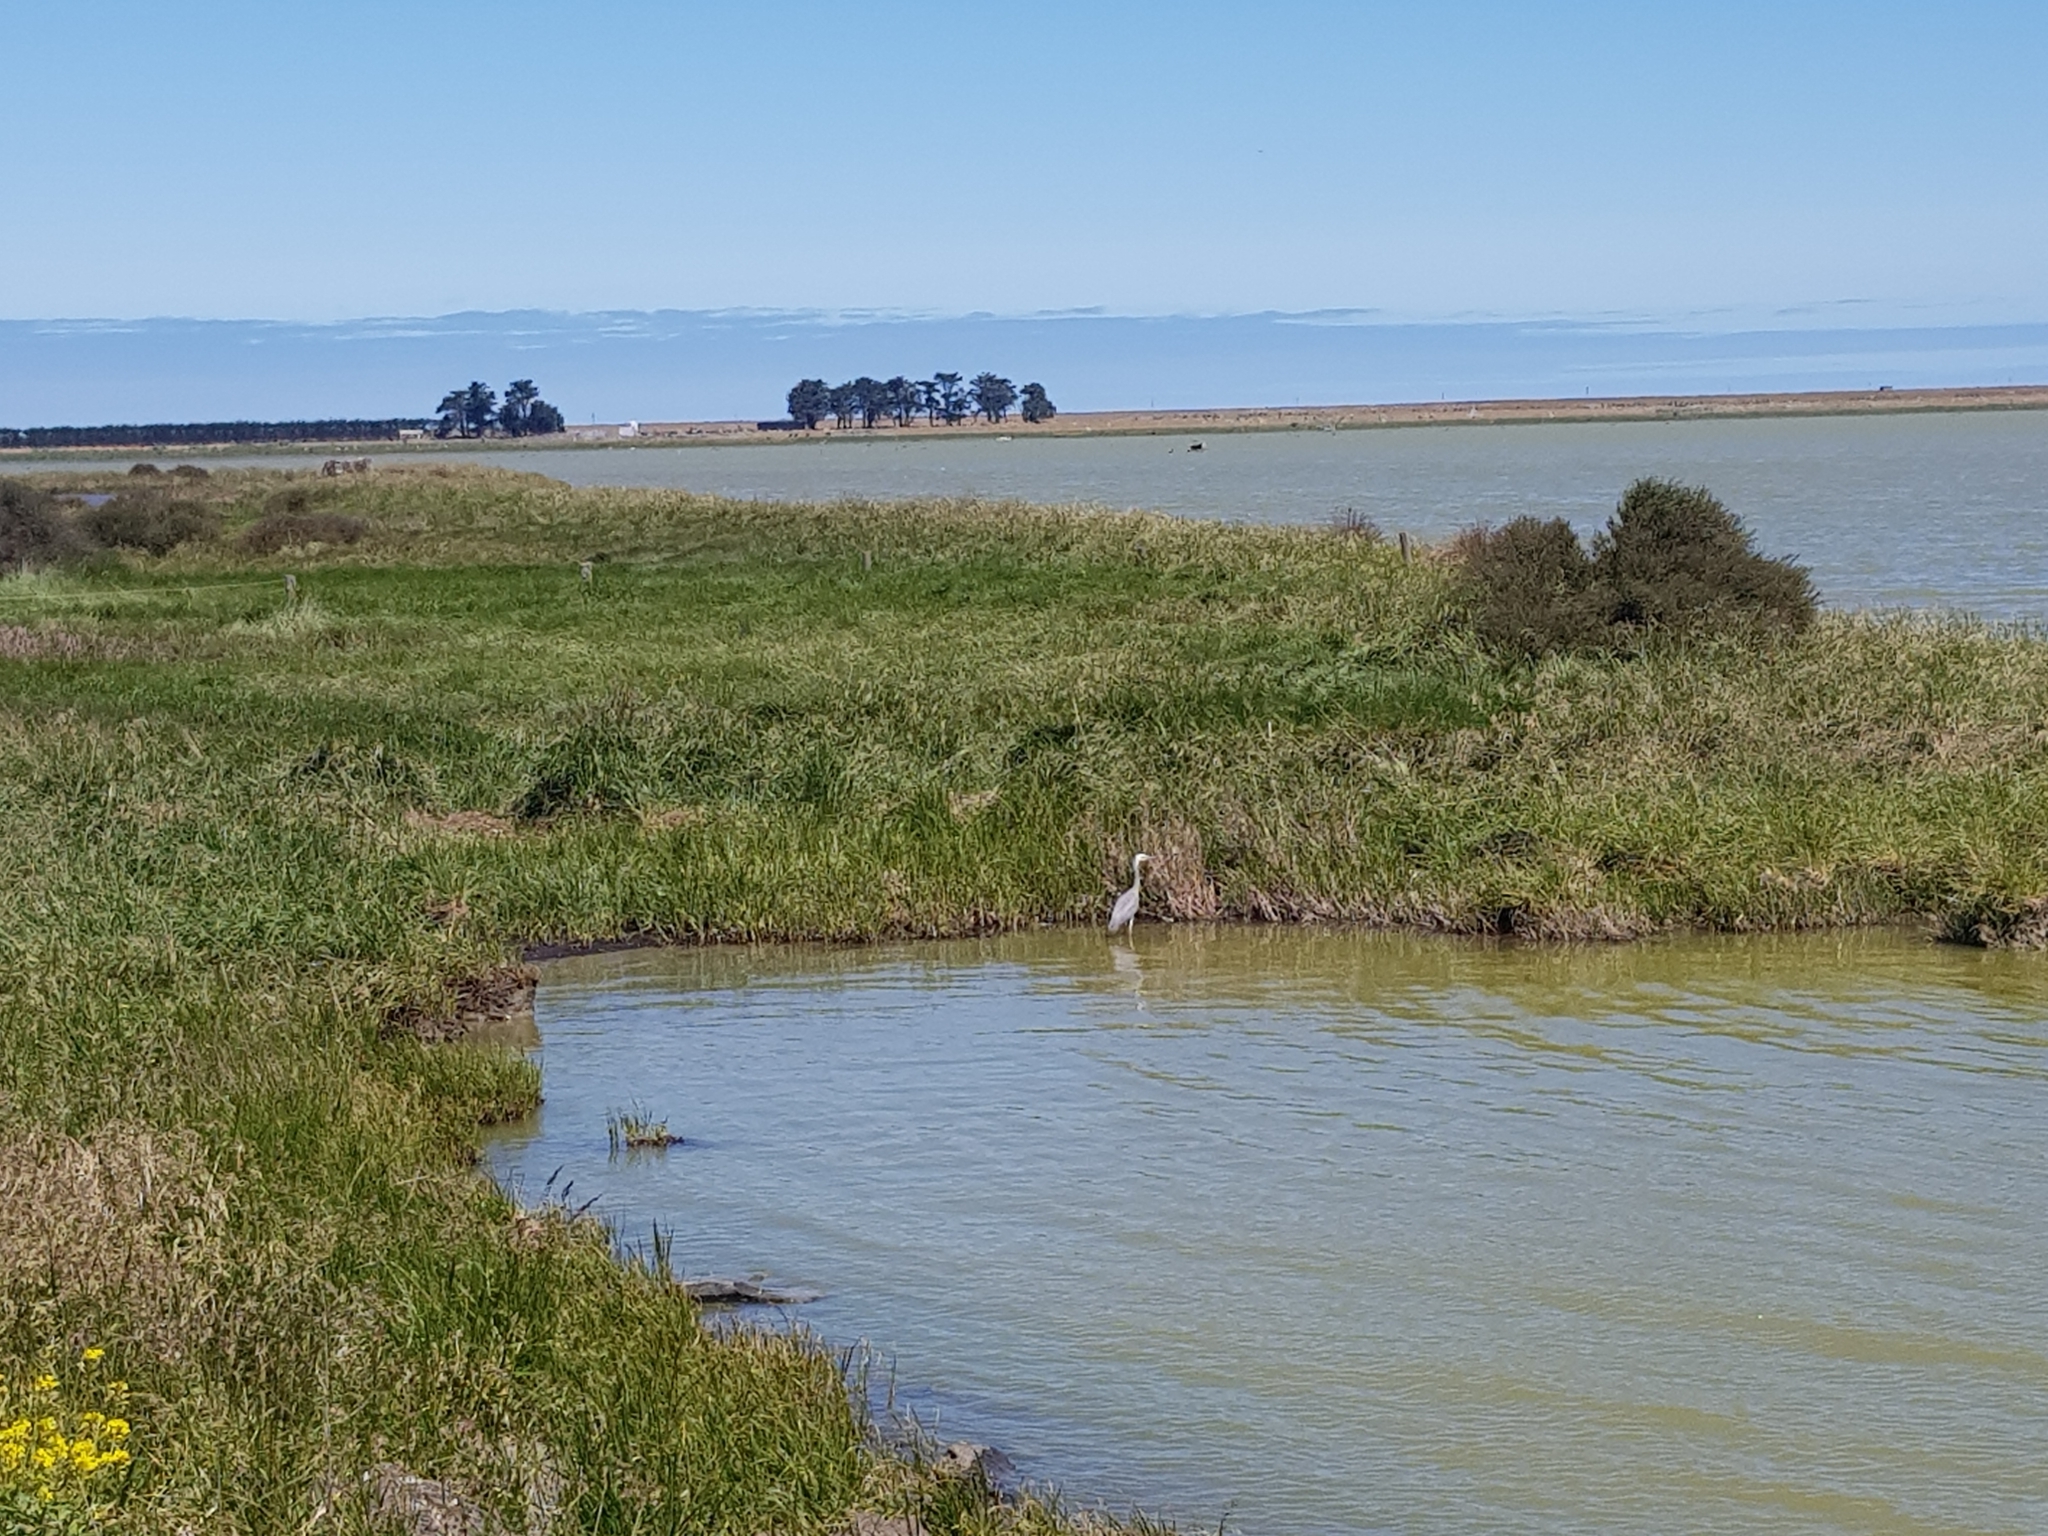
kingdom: Animalia
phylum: Chordata
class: Aves
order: Pelecaniformes
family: Ardeidae
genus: Egretta
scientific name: Egretta novaehollandiae
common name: White-faced heron
